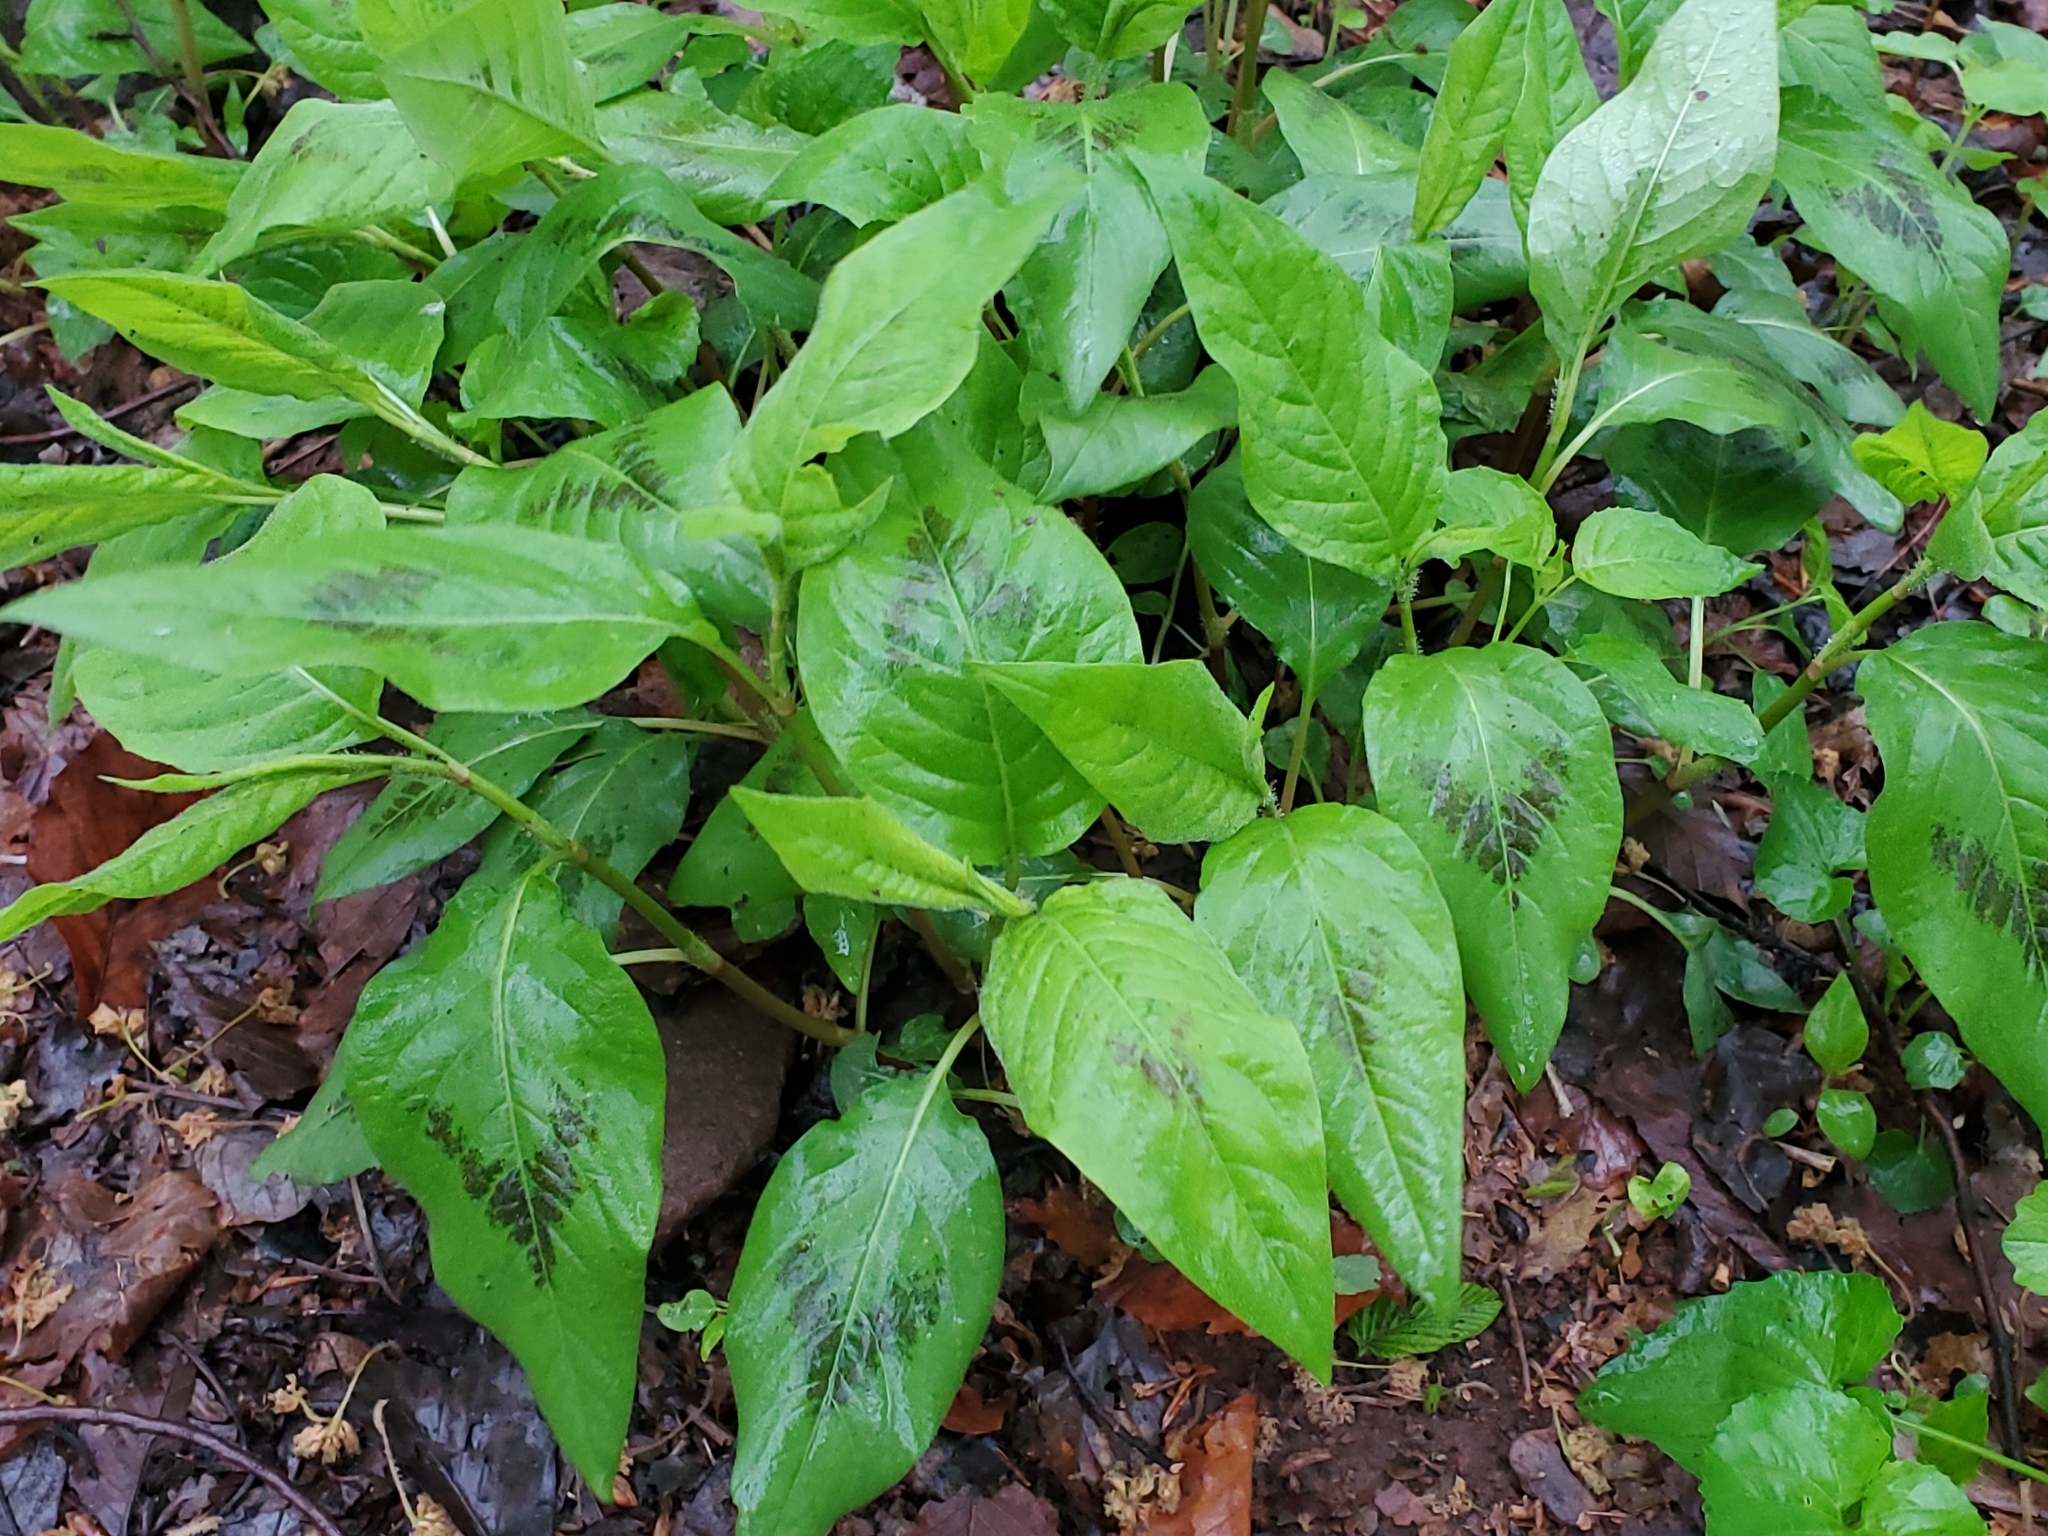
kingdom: Plantae
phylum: Tracheophyta
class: Magnoliopsida
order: Caryophyllales
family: Polygonaceae
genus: Persicaria
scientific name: Persicaria virginiana
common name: Jumpseed
